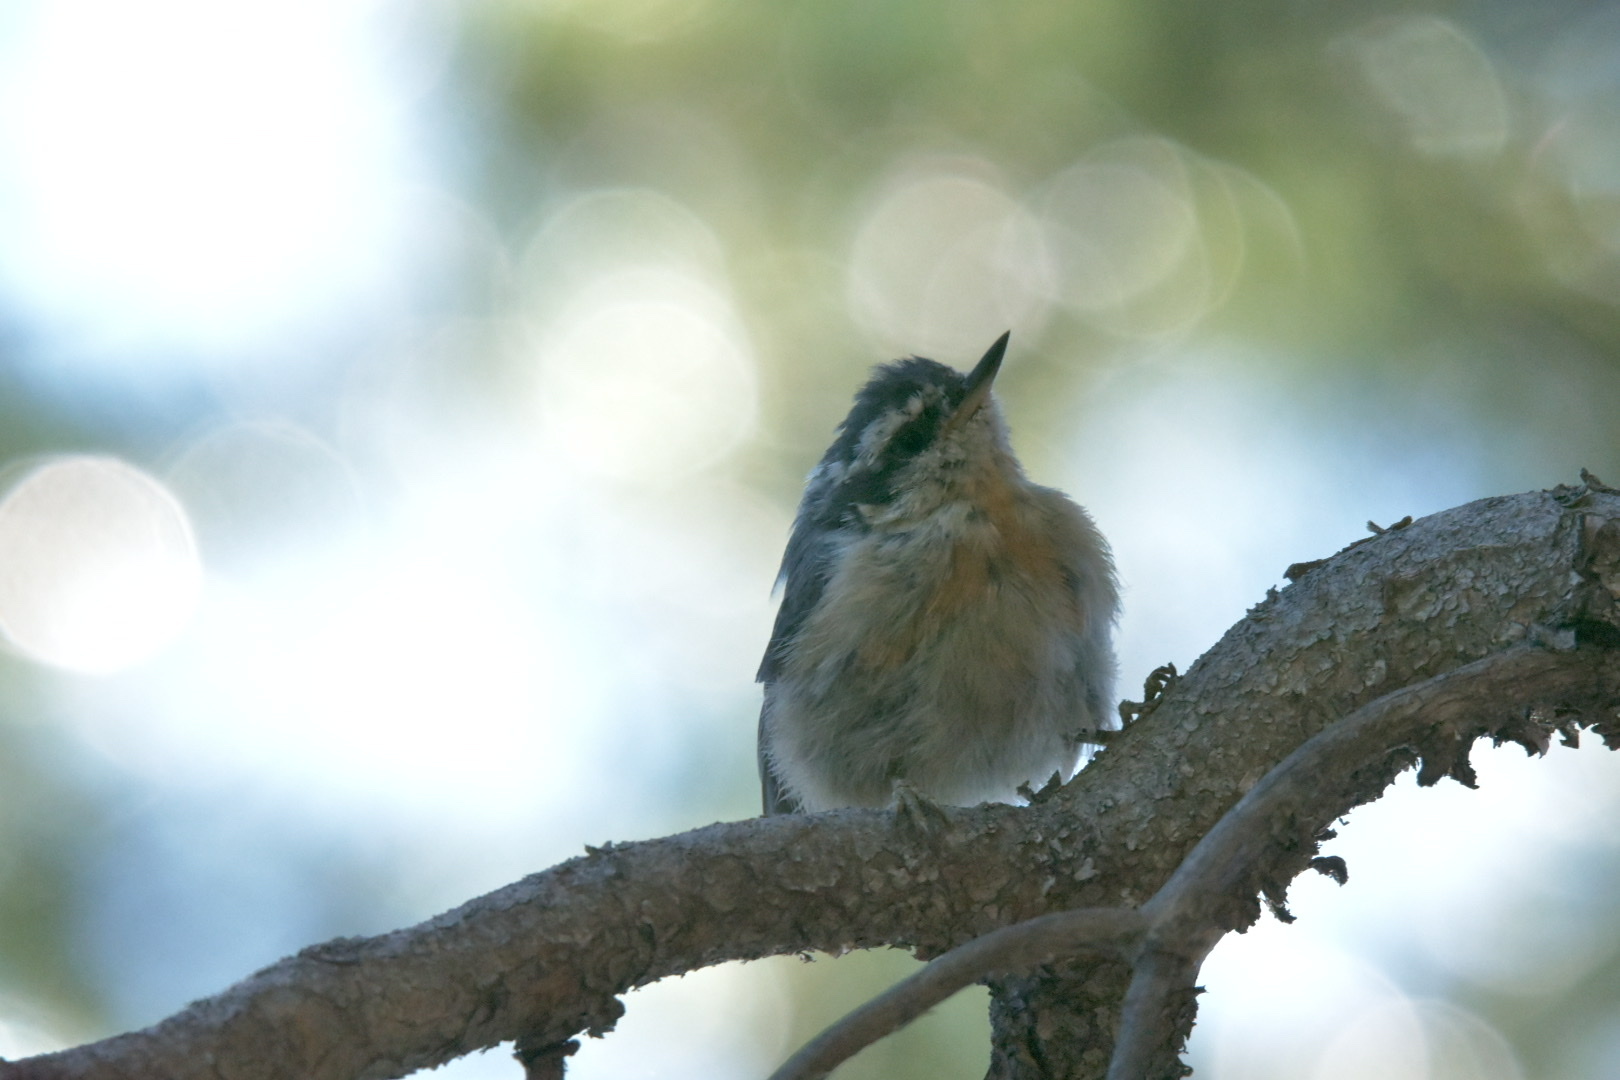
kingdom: Animalia
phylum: Chordata
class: Aves
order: Passeriformes
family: Sittidae
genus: Sitta
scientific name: Sitta canadensis
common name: Red-breasted nuthatch
